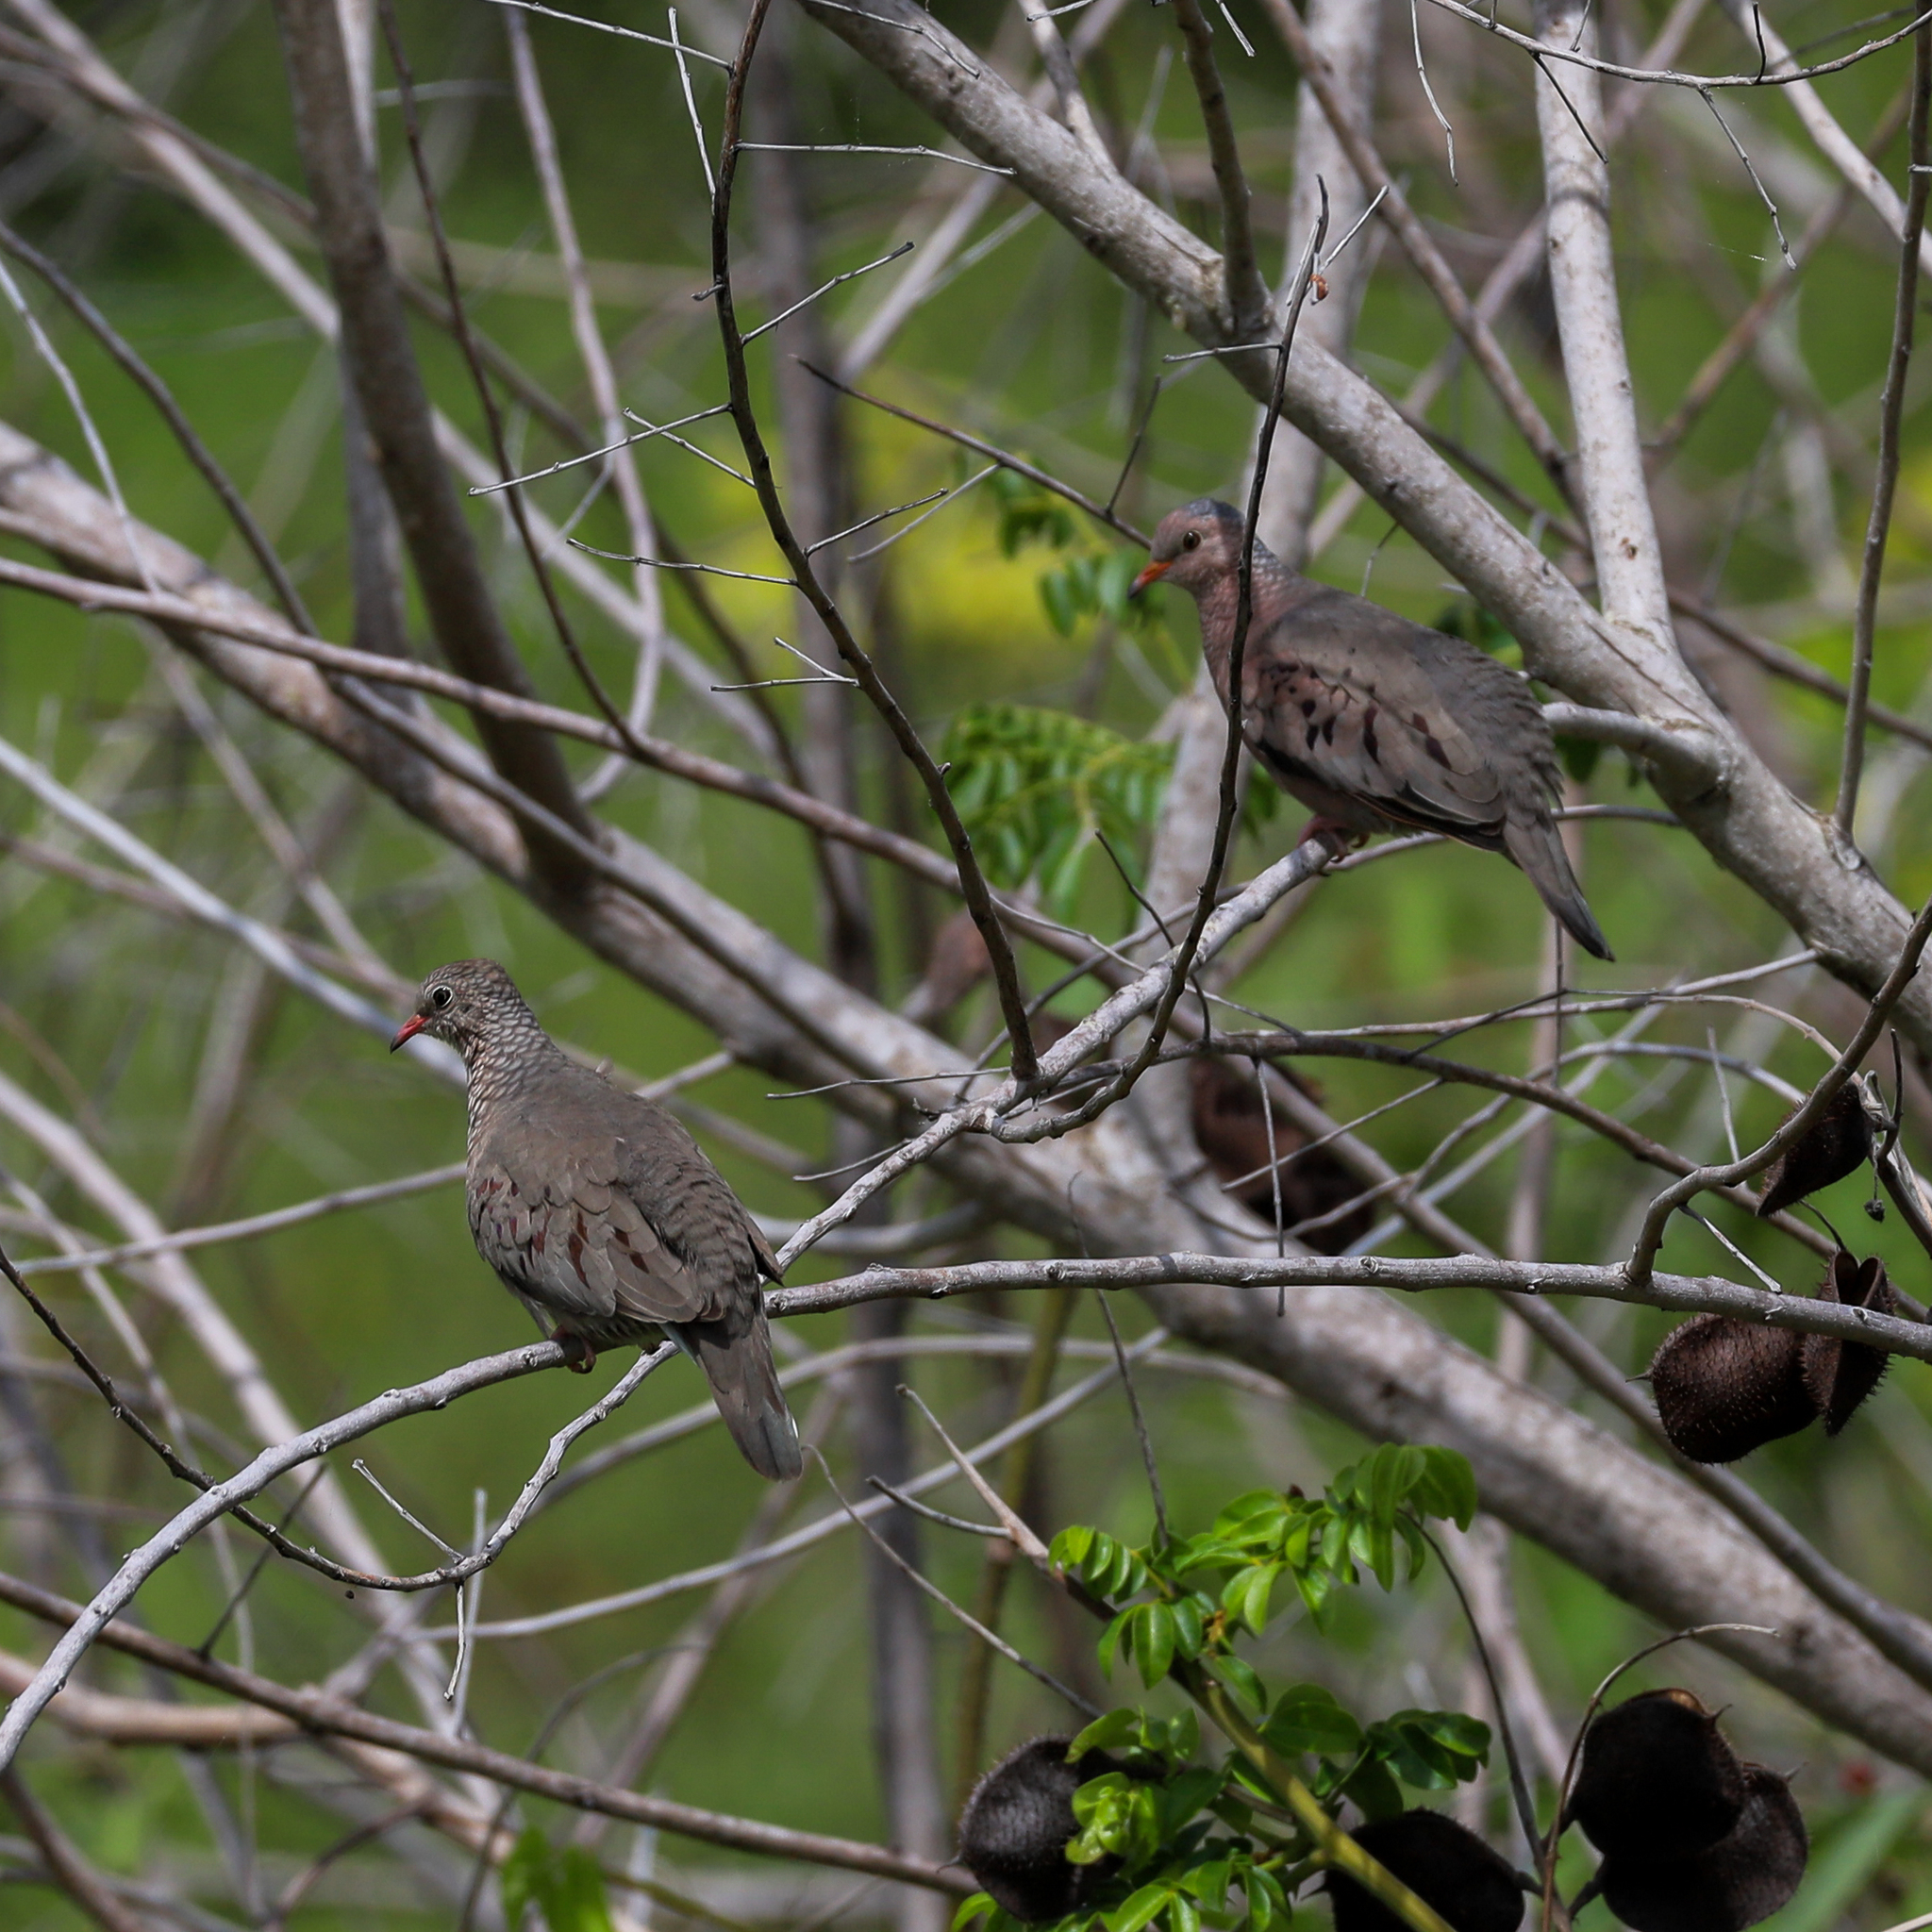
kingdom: Animalia
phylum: Chordata
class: Aves
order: Columbiformes
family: Columbidae
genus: Columbina
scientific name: Columbina passerina
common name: Common ground-dove
